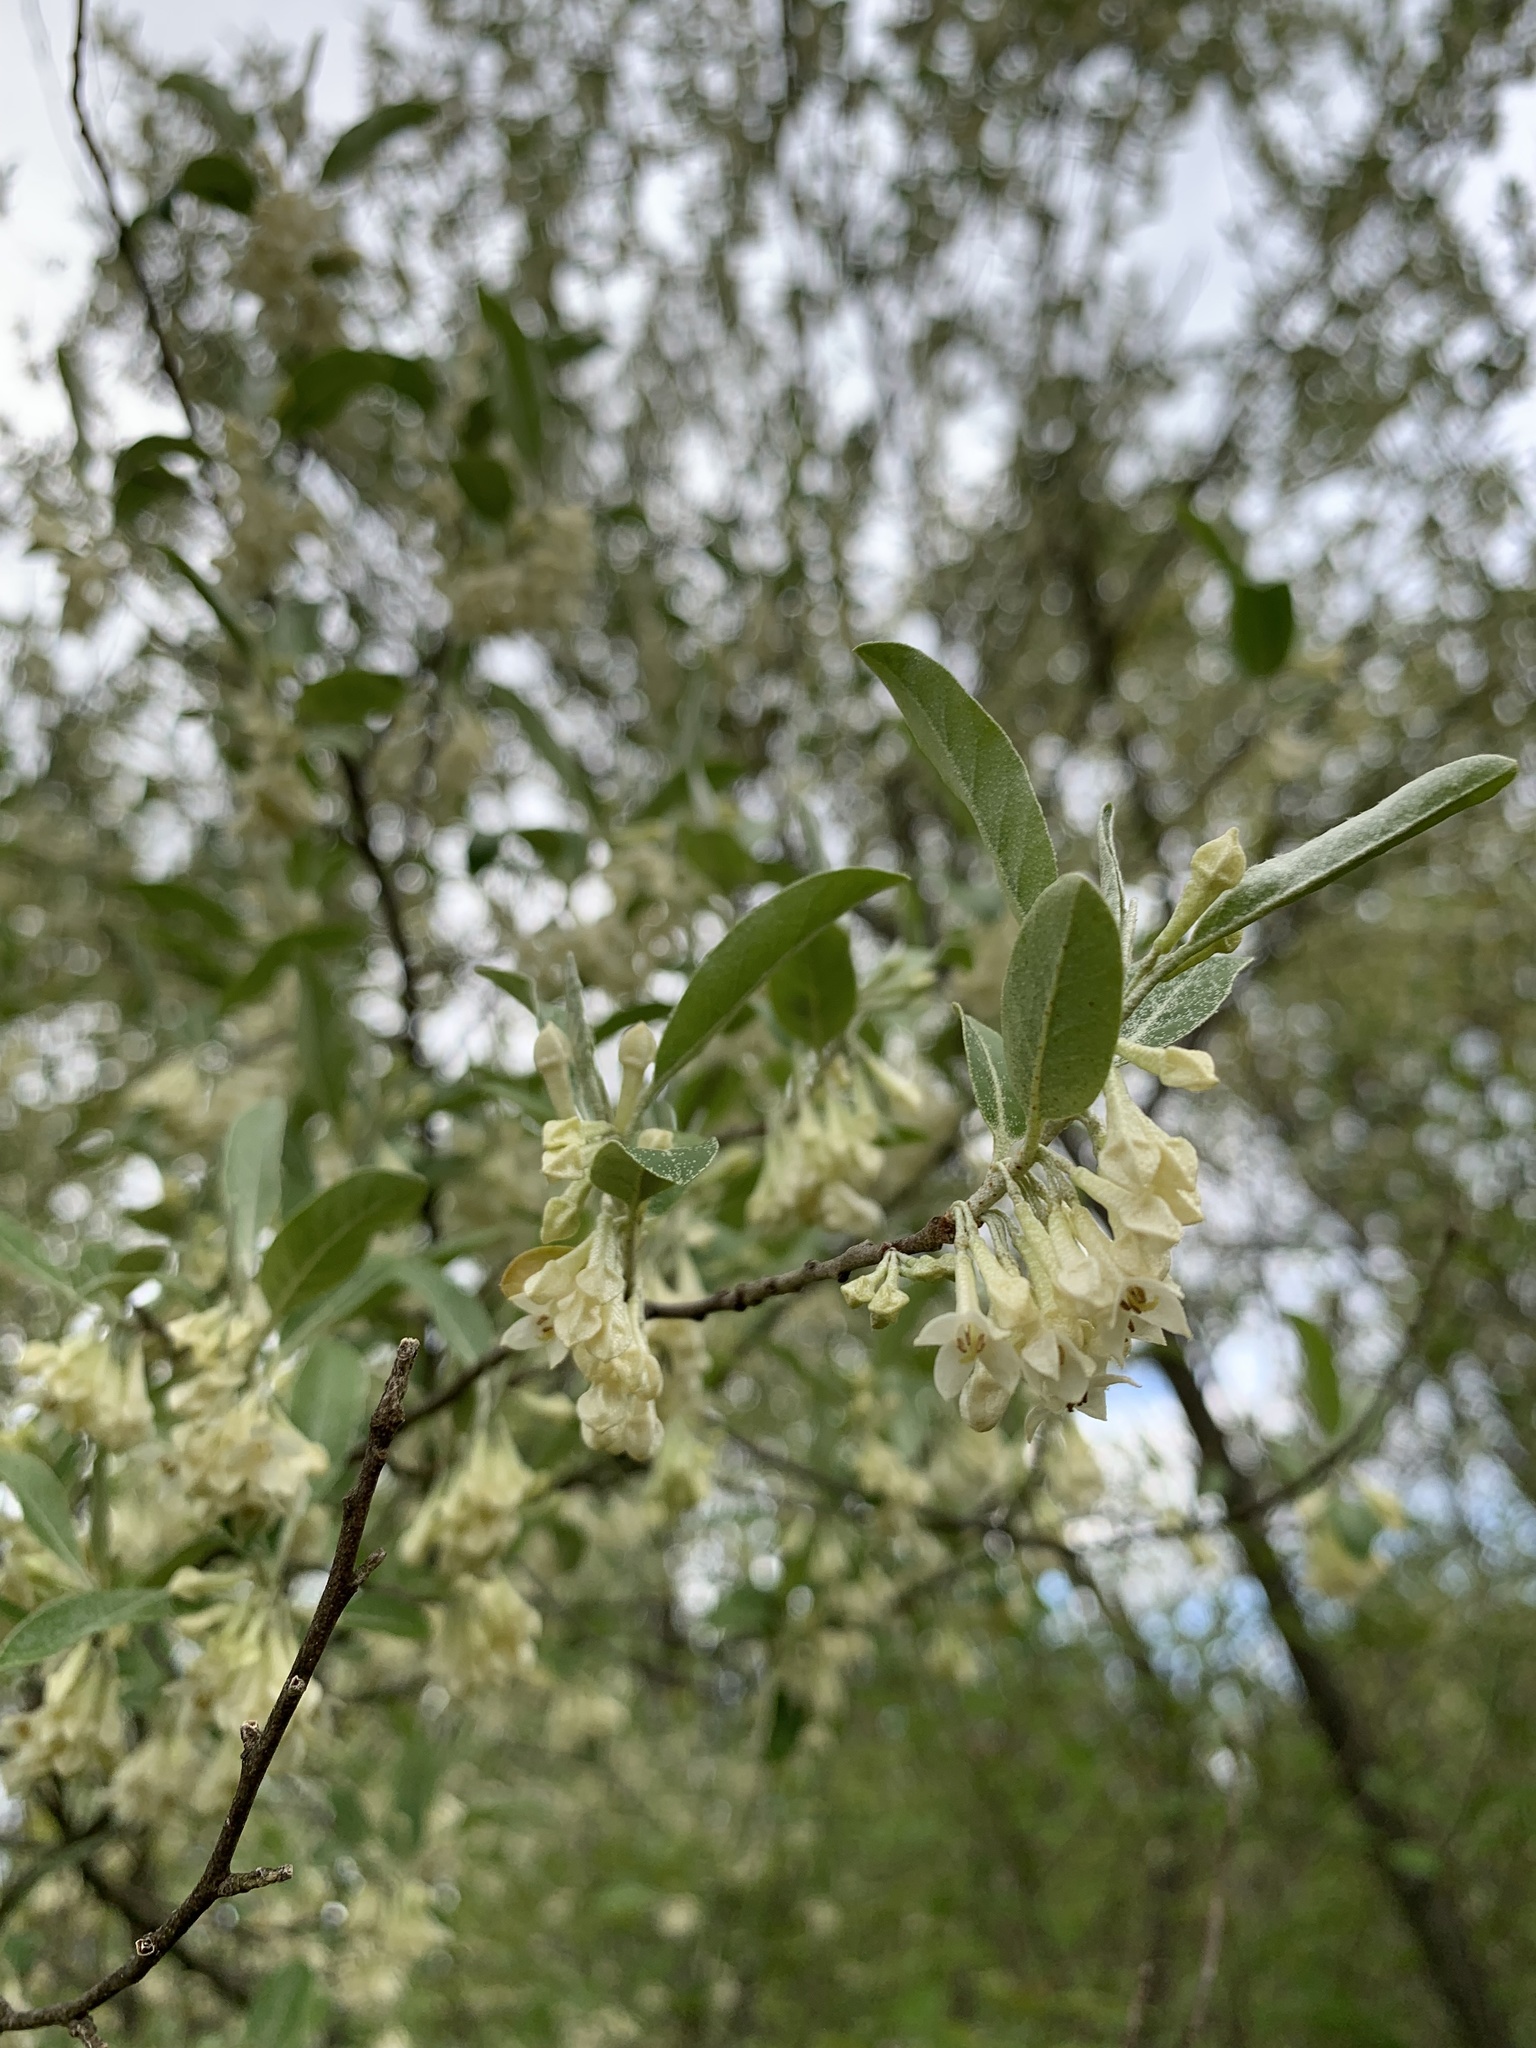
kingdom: Plantae
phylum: Tracheophyta
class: Magnoliopsida
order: Rosales
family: Elaeagnaceae
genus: Elaeagnus
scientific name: Elaeagnus umbellata
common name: Autumn olive
